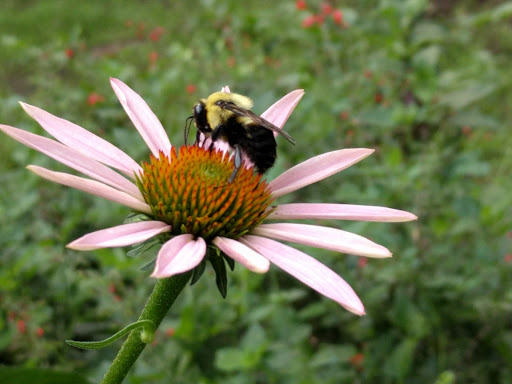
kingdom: Animalia
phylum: Arthropoda
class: Insecta
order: Hymenoptera
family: Apidae
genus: Bombus
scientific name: Bombus griseocollis
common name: Brown-belted bumble bee
